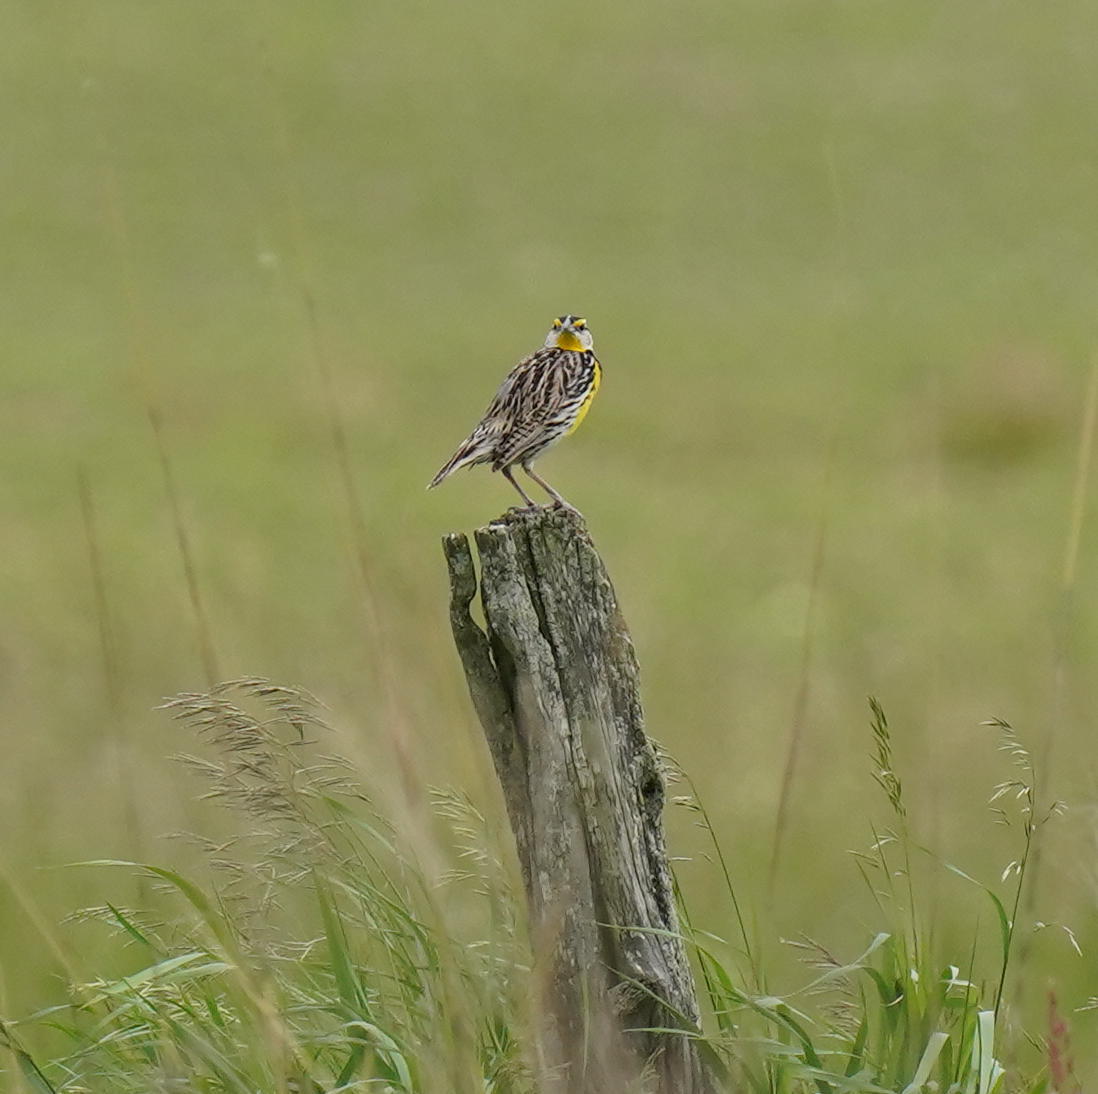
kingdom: Animalia
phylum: Chordata
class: Aves
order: Passeriformes
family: Icteridae
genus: Sturnella
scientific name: Sturnella magna
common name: Eastern meadowlark
